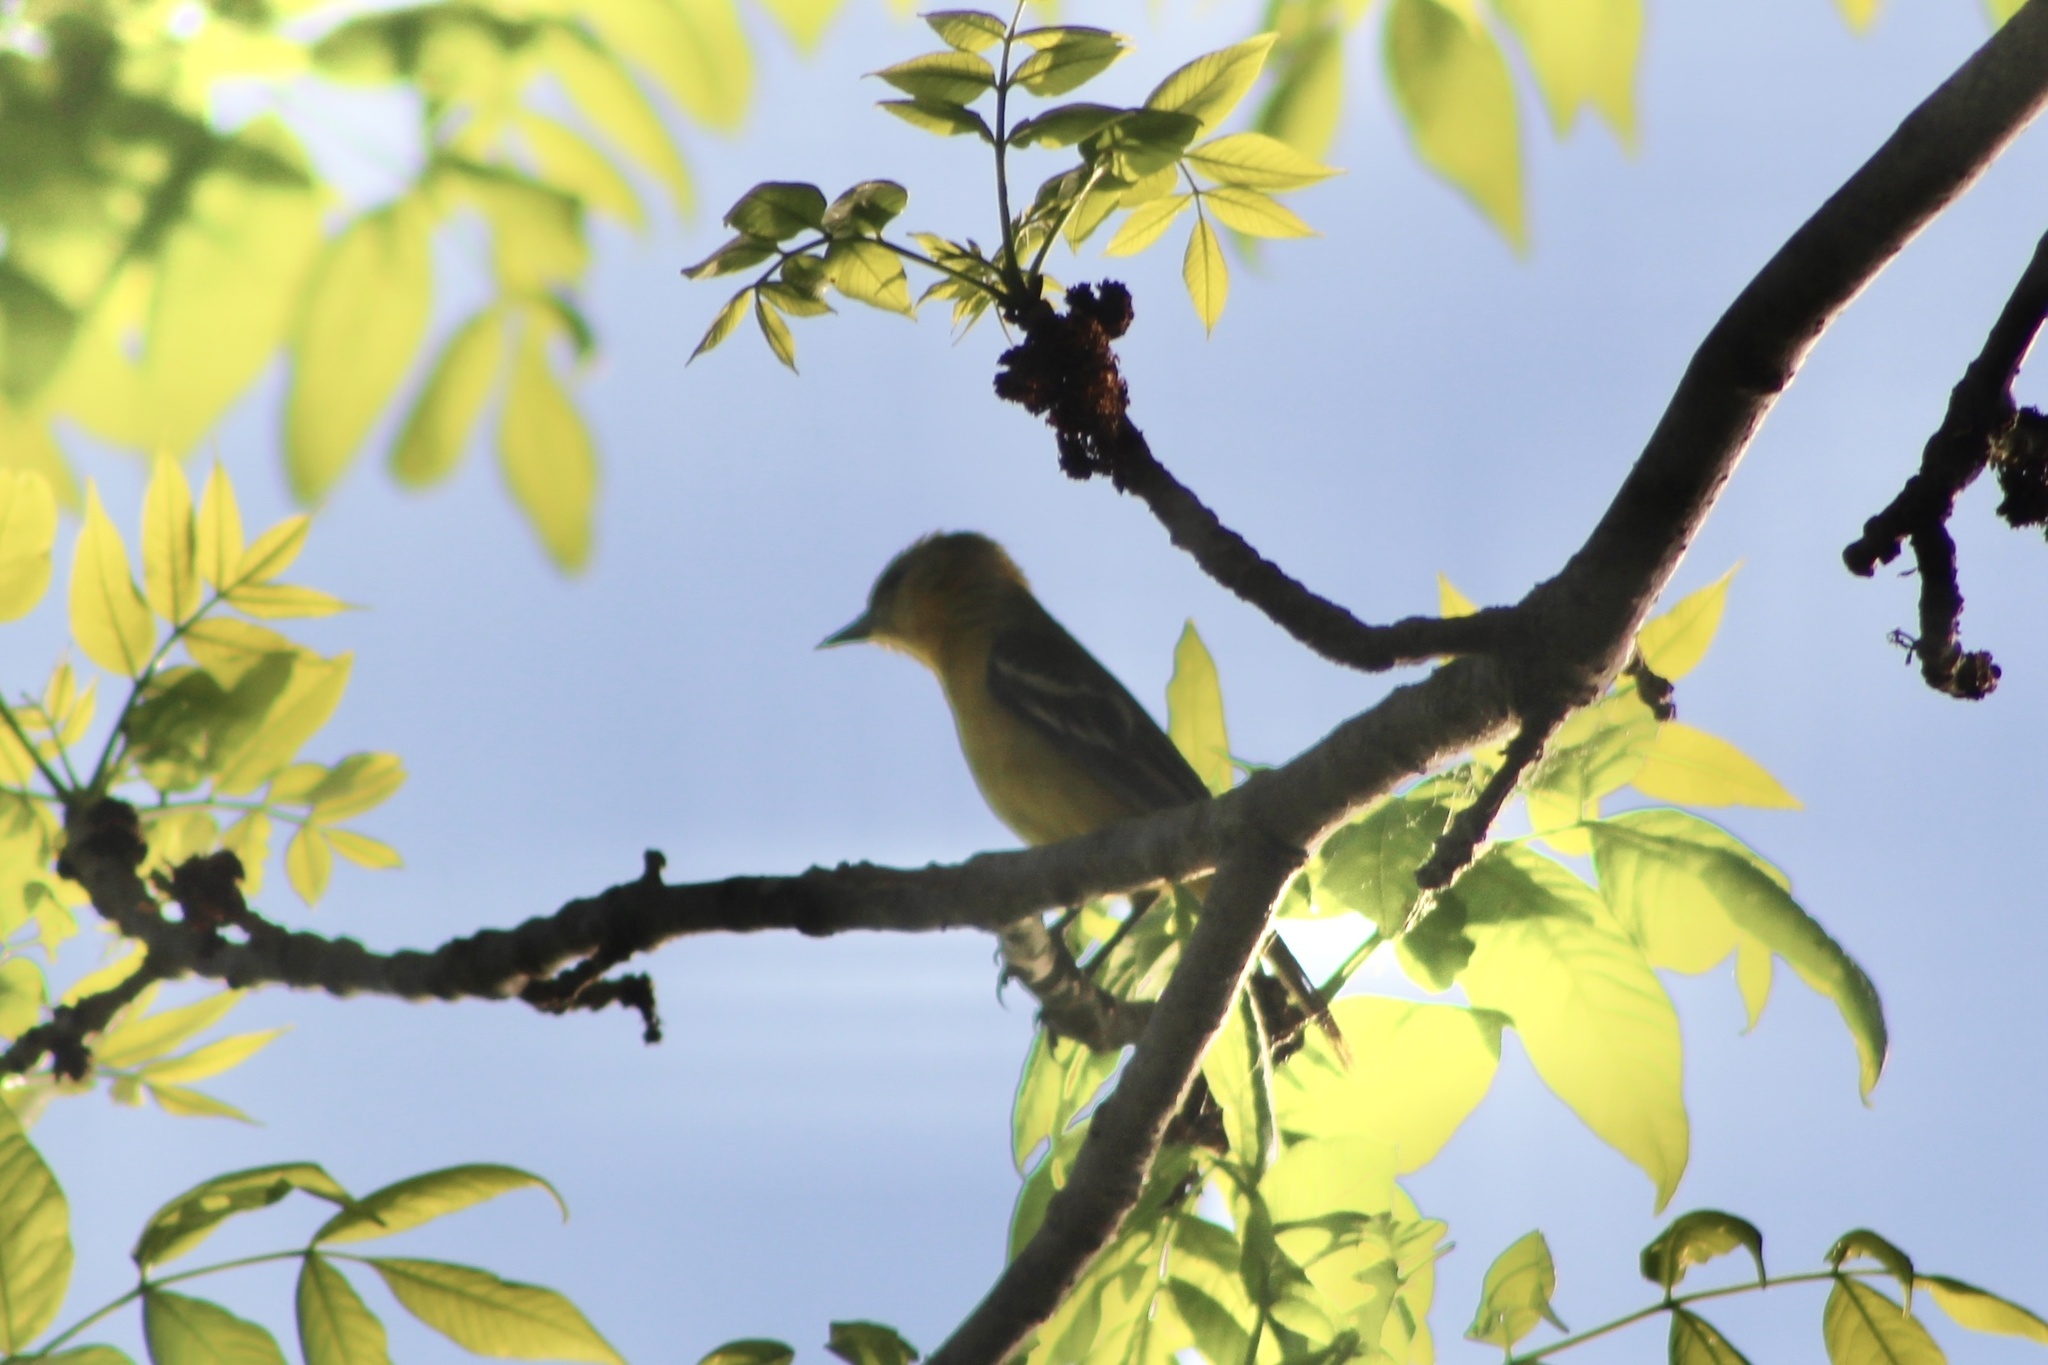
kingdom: Animalia
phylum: Chordata
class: Aves
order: Passeriformes
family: Icteridae
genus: Icterus
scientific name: Icterus galbula
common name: Baltimore oriole
